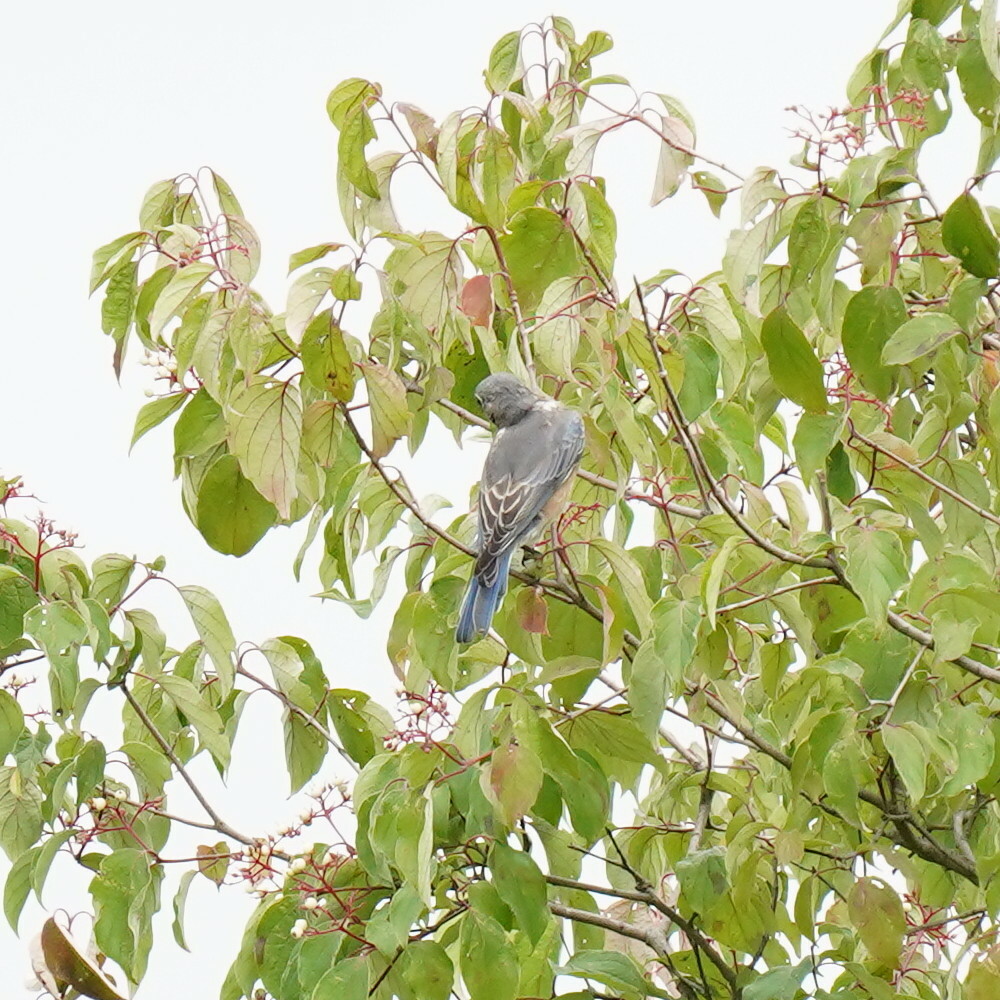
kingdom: Animalia
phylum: Chordata
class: Aves
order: Passeriformes
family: Turdidae
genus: Sialia
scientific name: Sialia sialis
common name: Eastern bluebird
